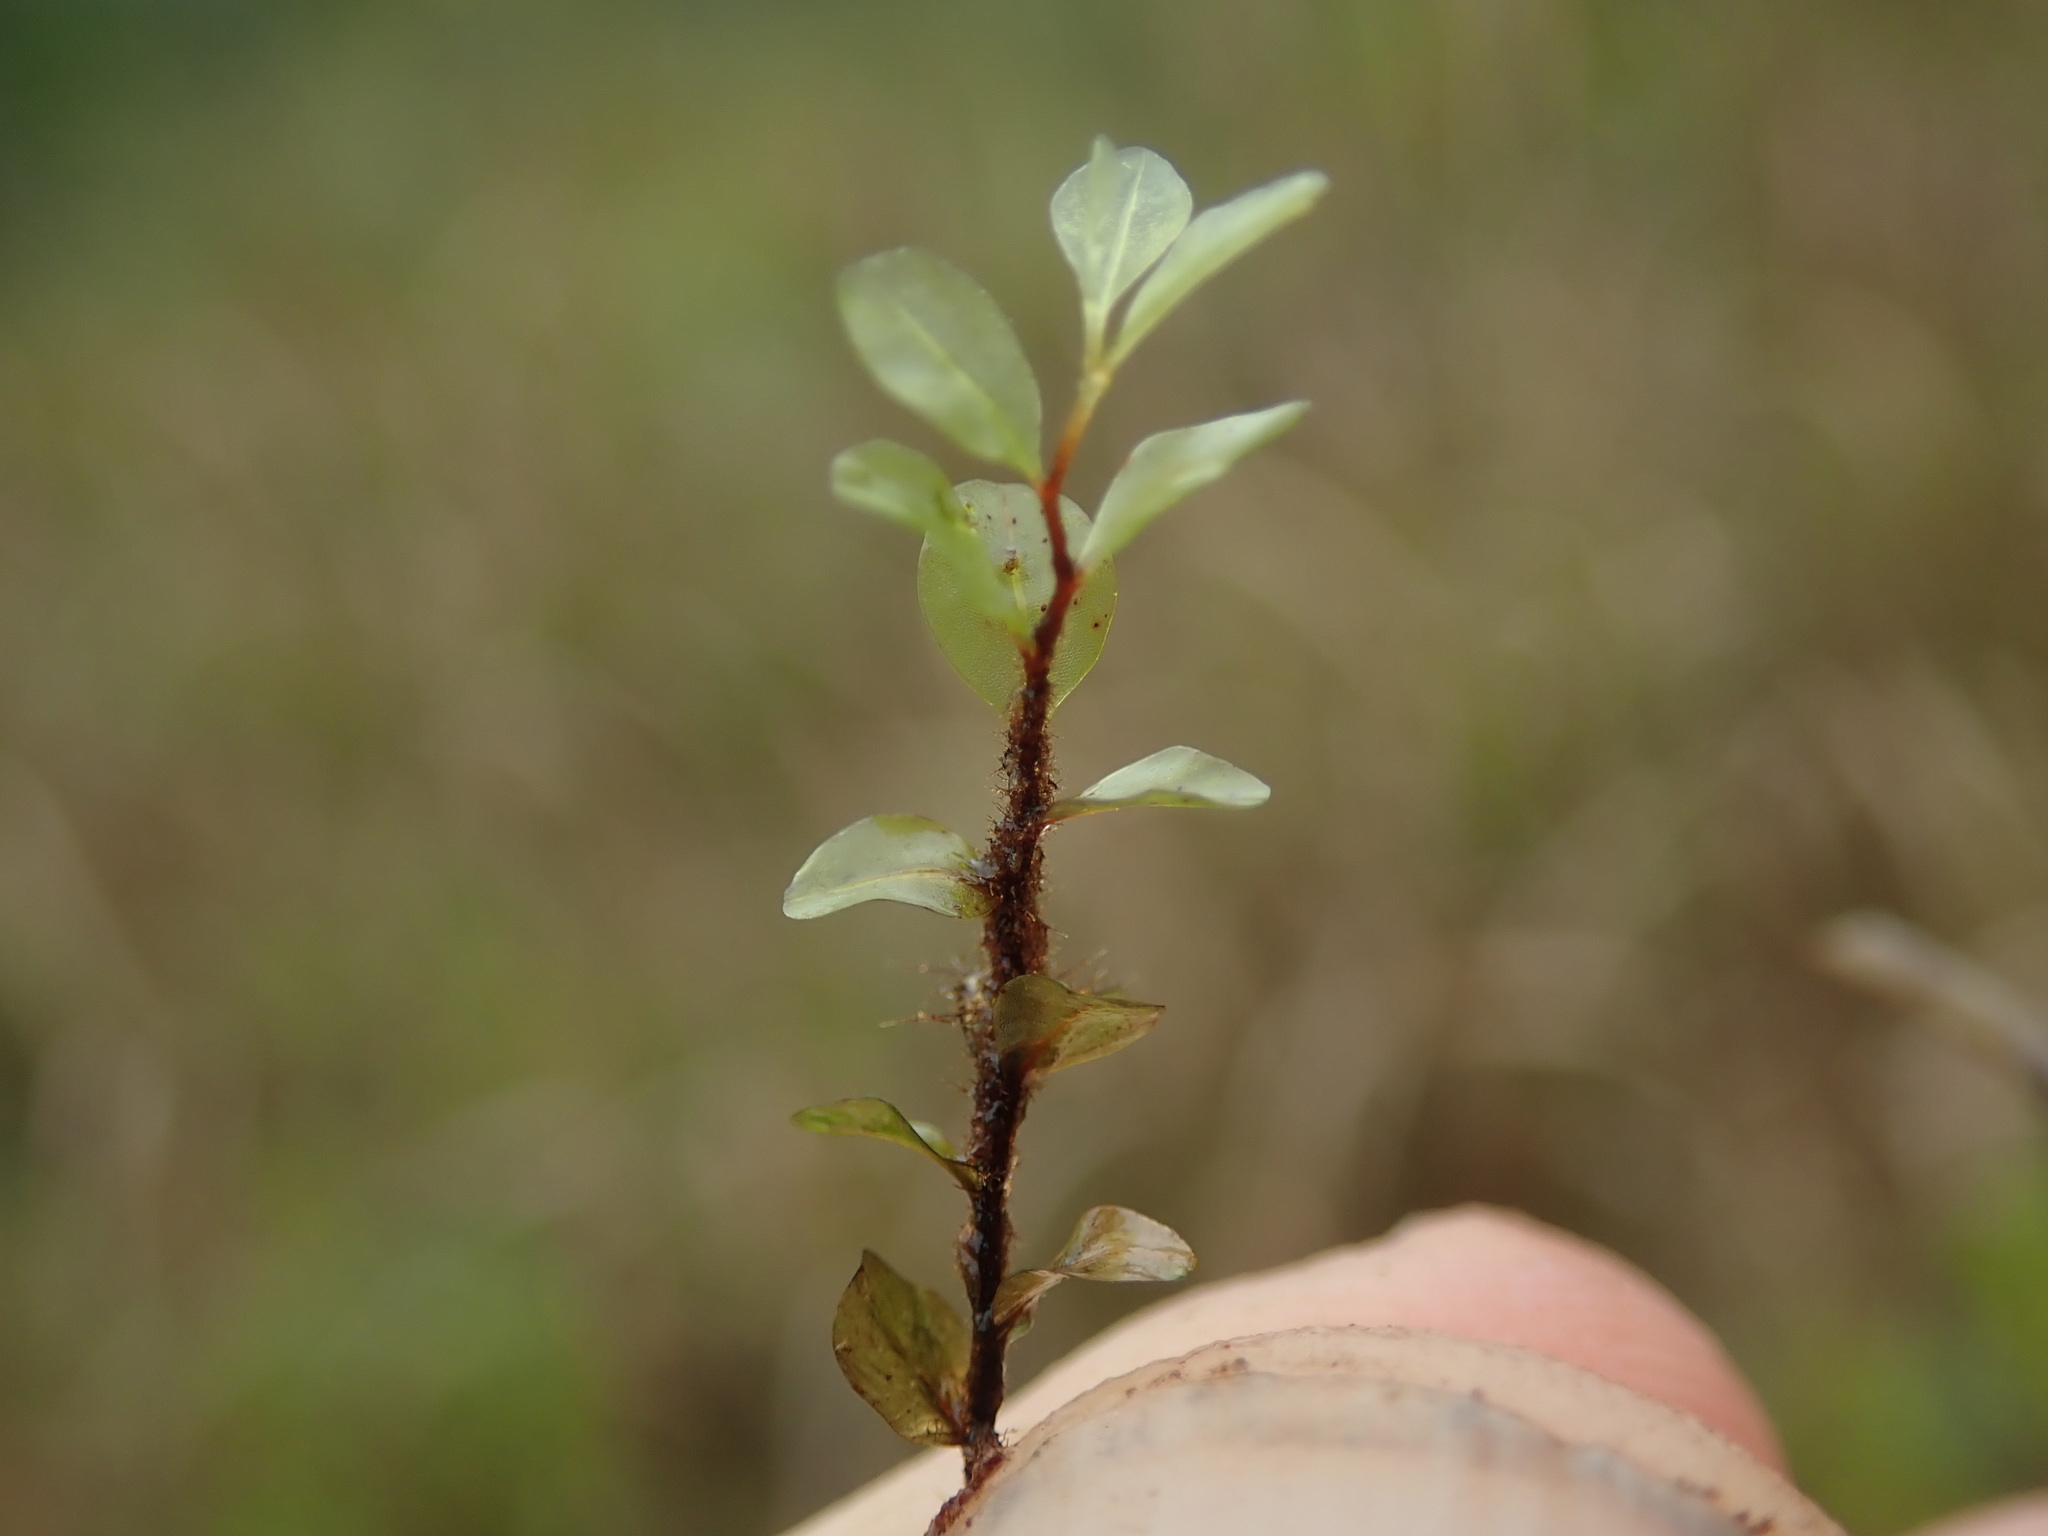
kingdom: Plantae
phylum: Bryophyta
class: Bryopsida
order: Bryales
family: Mniaceae
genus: Rhizomnium
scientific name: Rhizomnium magnifolium
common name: Large-leaved leafy moss
